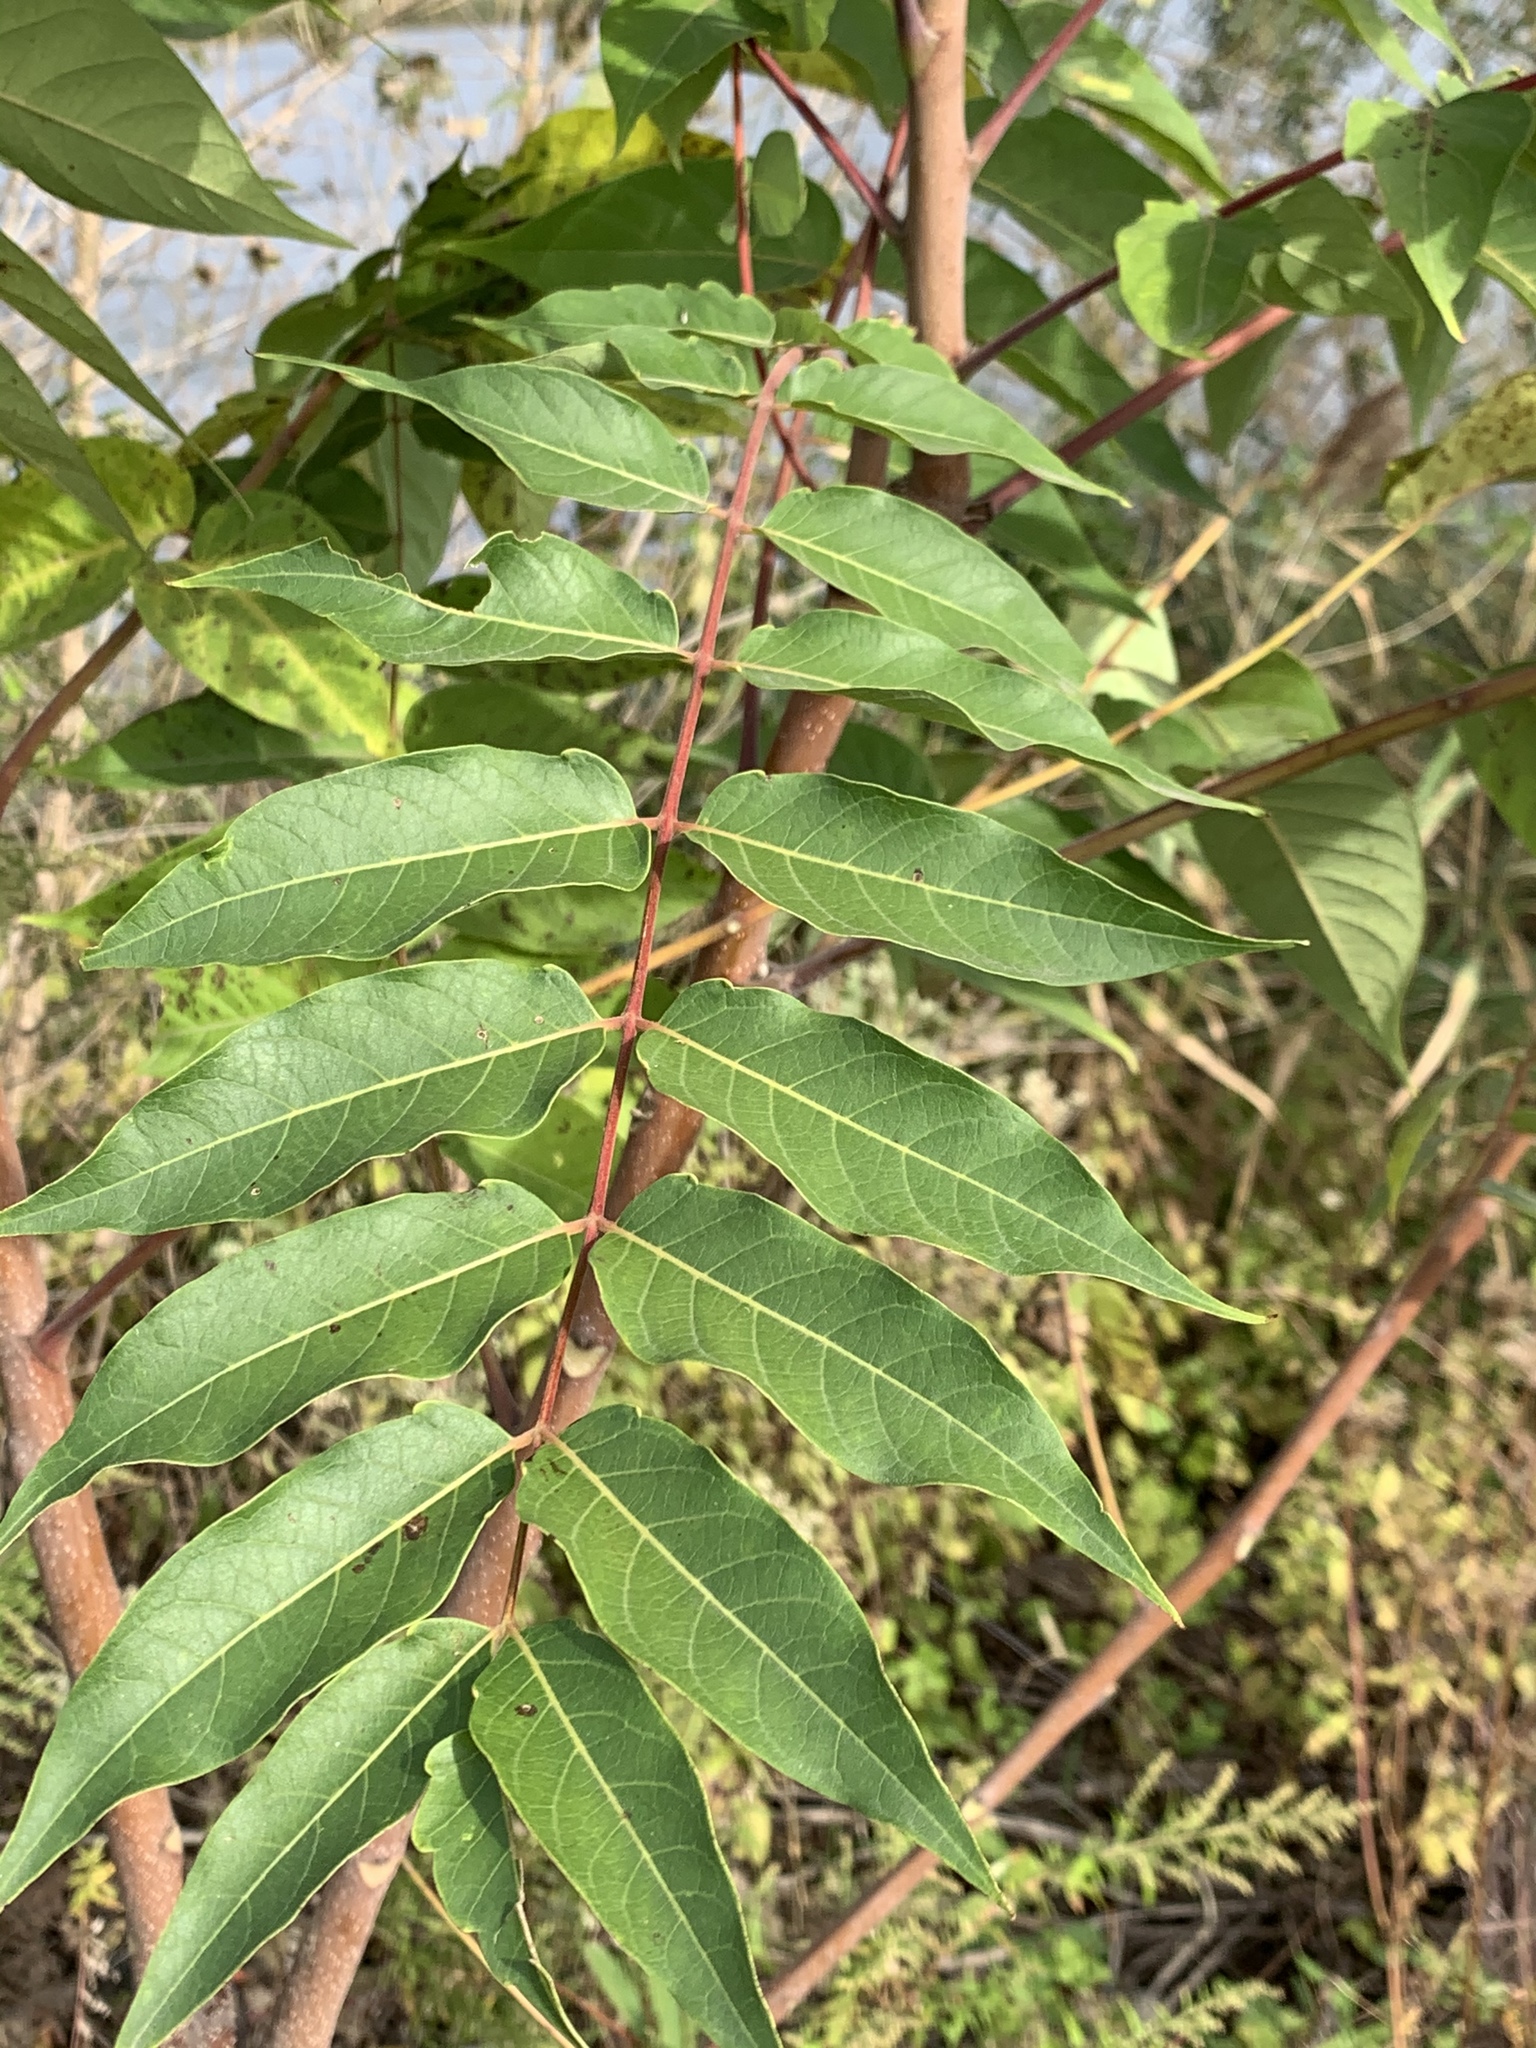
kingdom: Plantae
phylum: Tracheophyta
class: Magnoliopsida
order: Sapindales
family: Simaroubaceae
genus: Ailanthus
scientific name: Ailanthus altissima
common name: Tree-of-heaven
